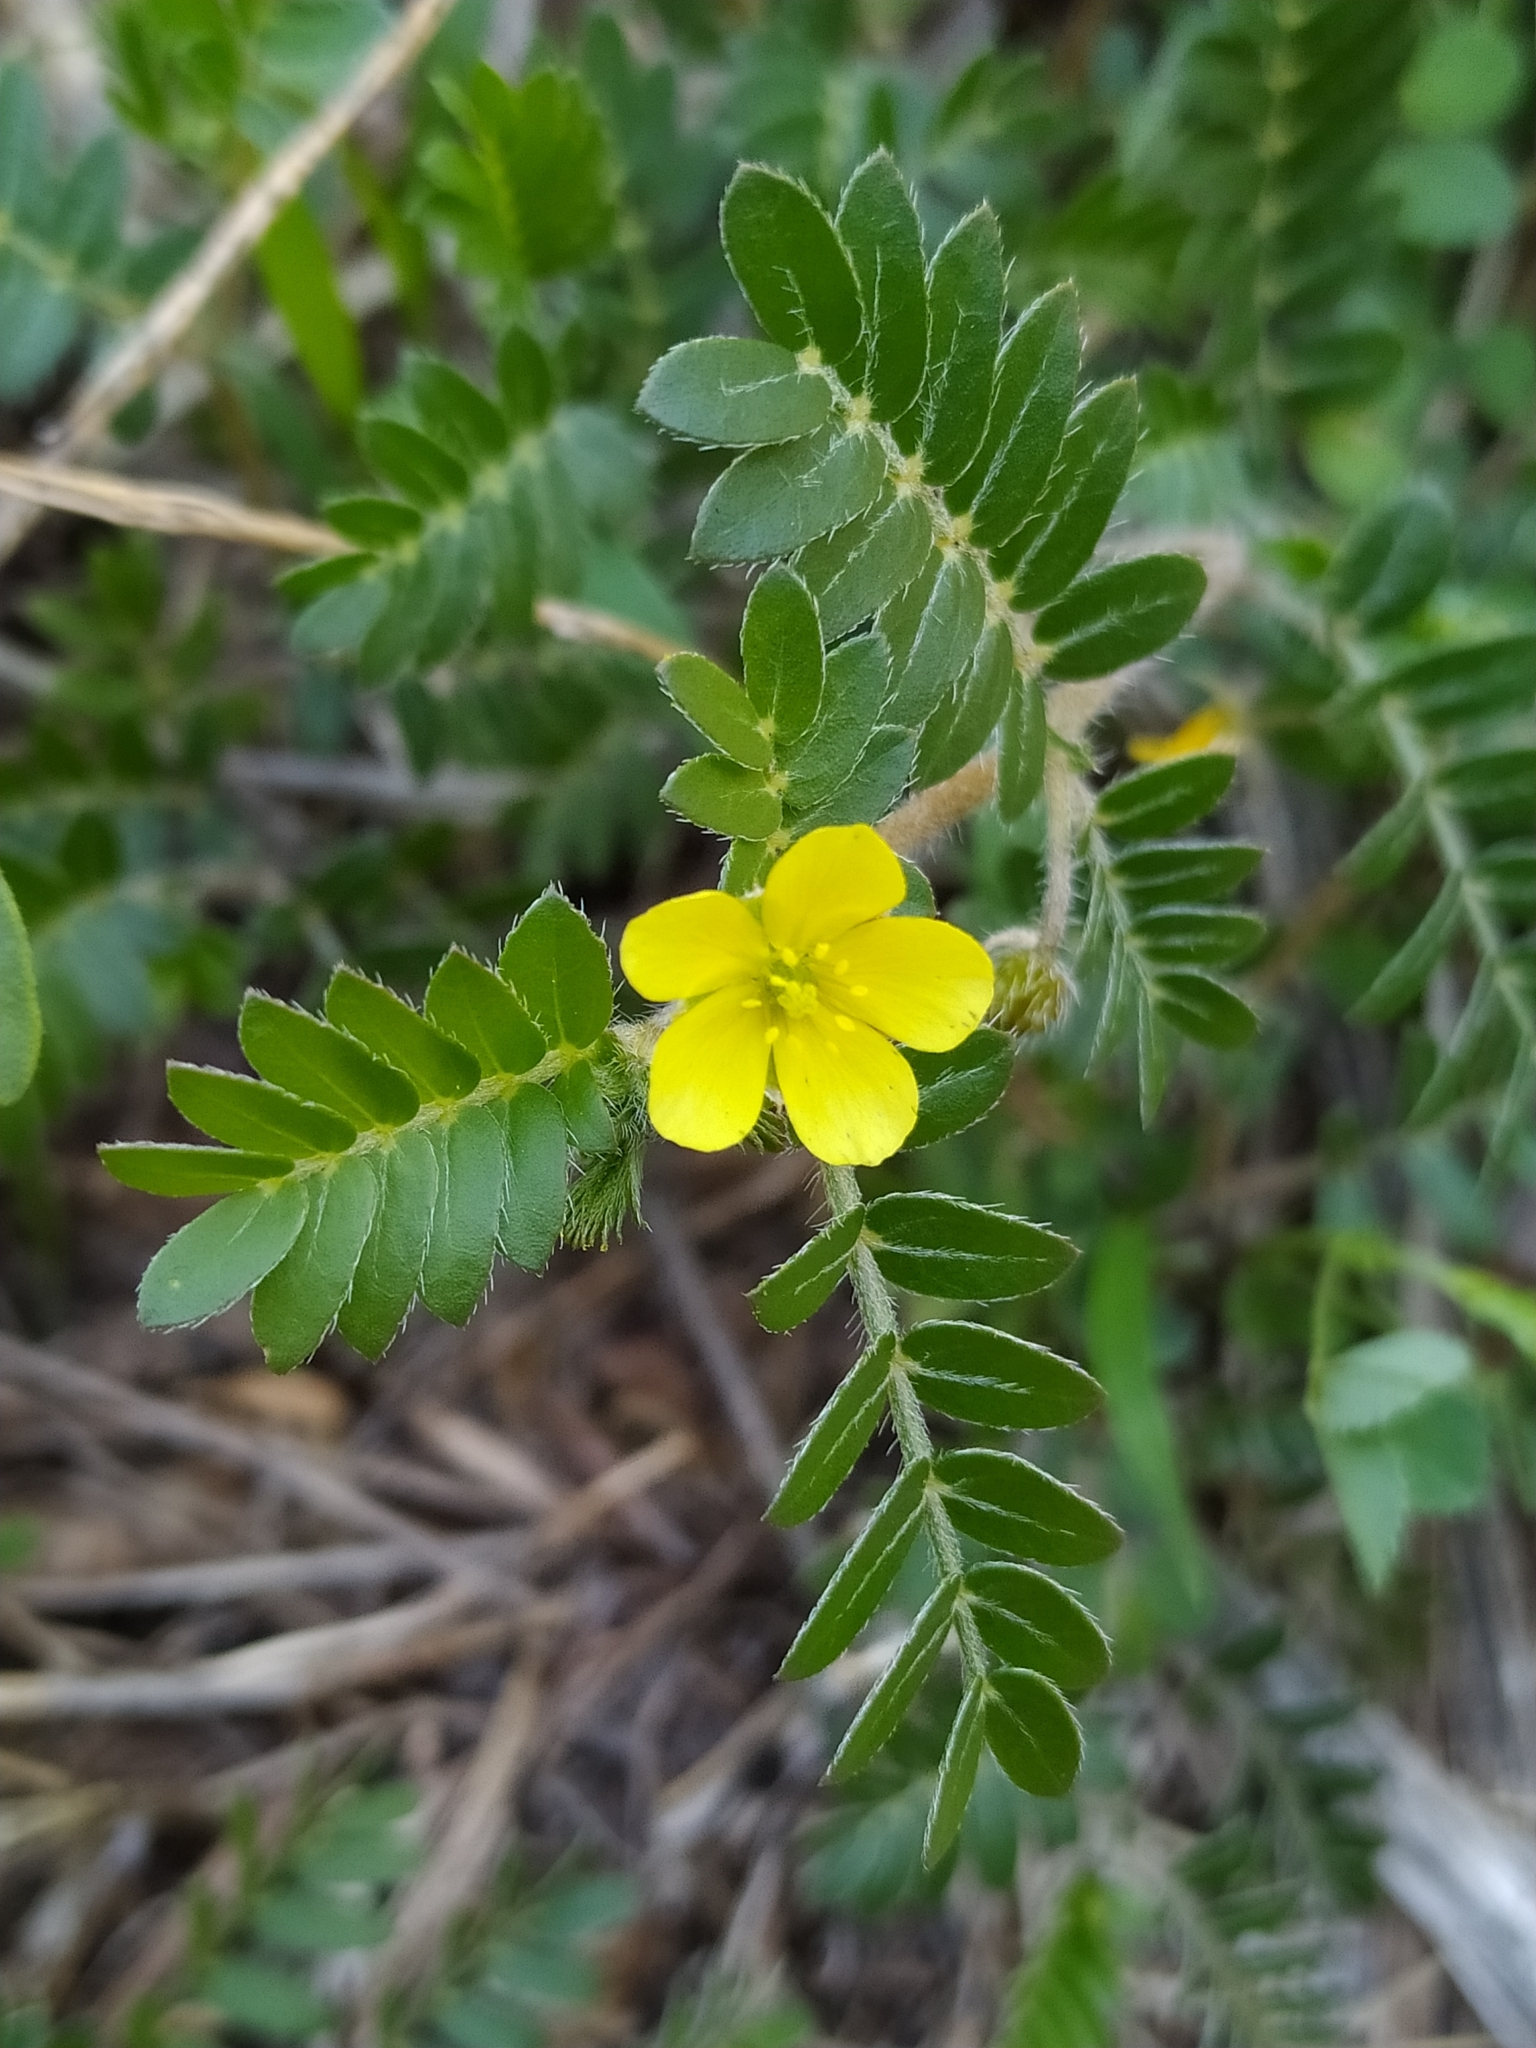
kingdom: Plantae
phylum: Tracheophyta
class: Magnoliopsida
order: Zygophyllales
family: Zygophyllaceae
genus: Tribulus
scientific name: Tribulus terrestris
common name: Puncturevine
